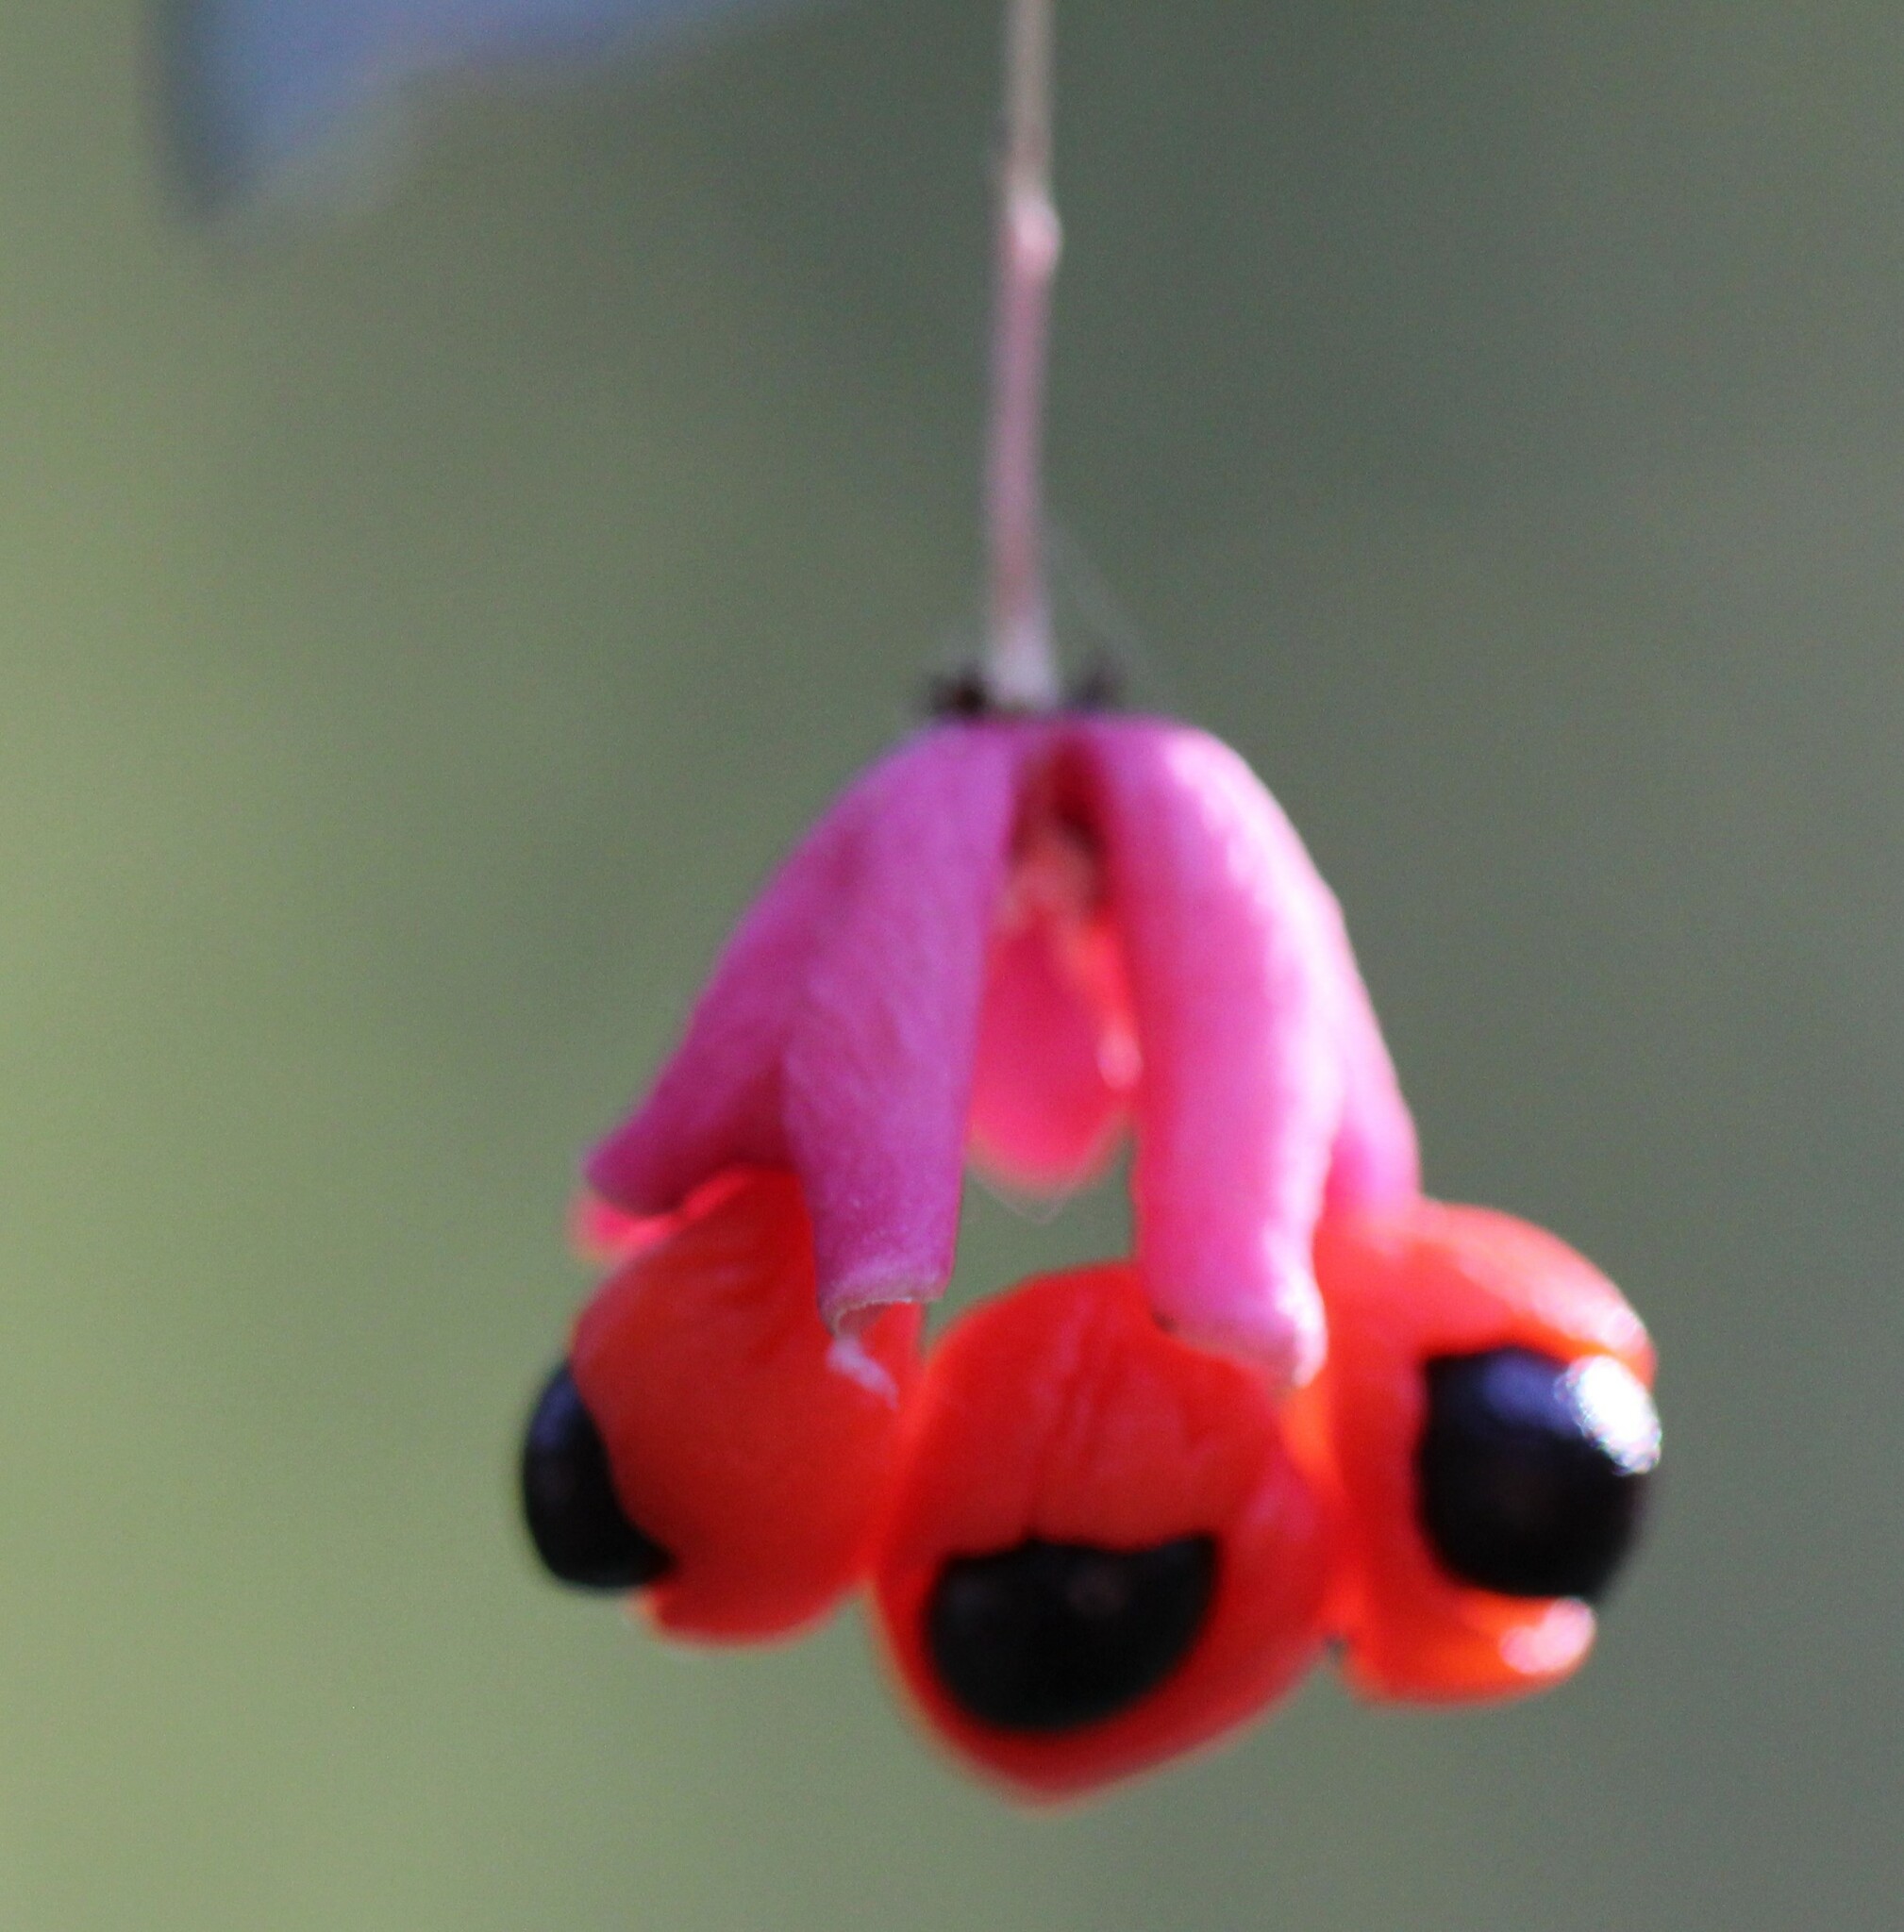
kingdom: Plantae
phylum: Tracheophyta
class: Magnoliopsida
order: Celastrales
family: Celastraceae
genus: Euonymus
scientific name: Euonymus verrucosus
